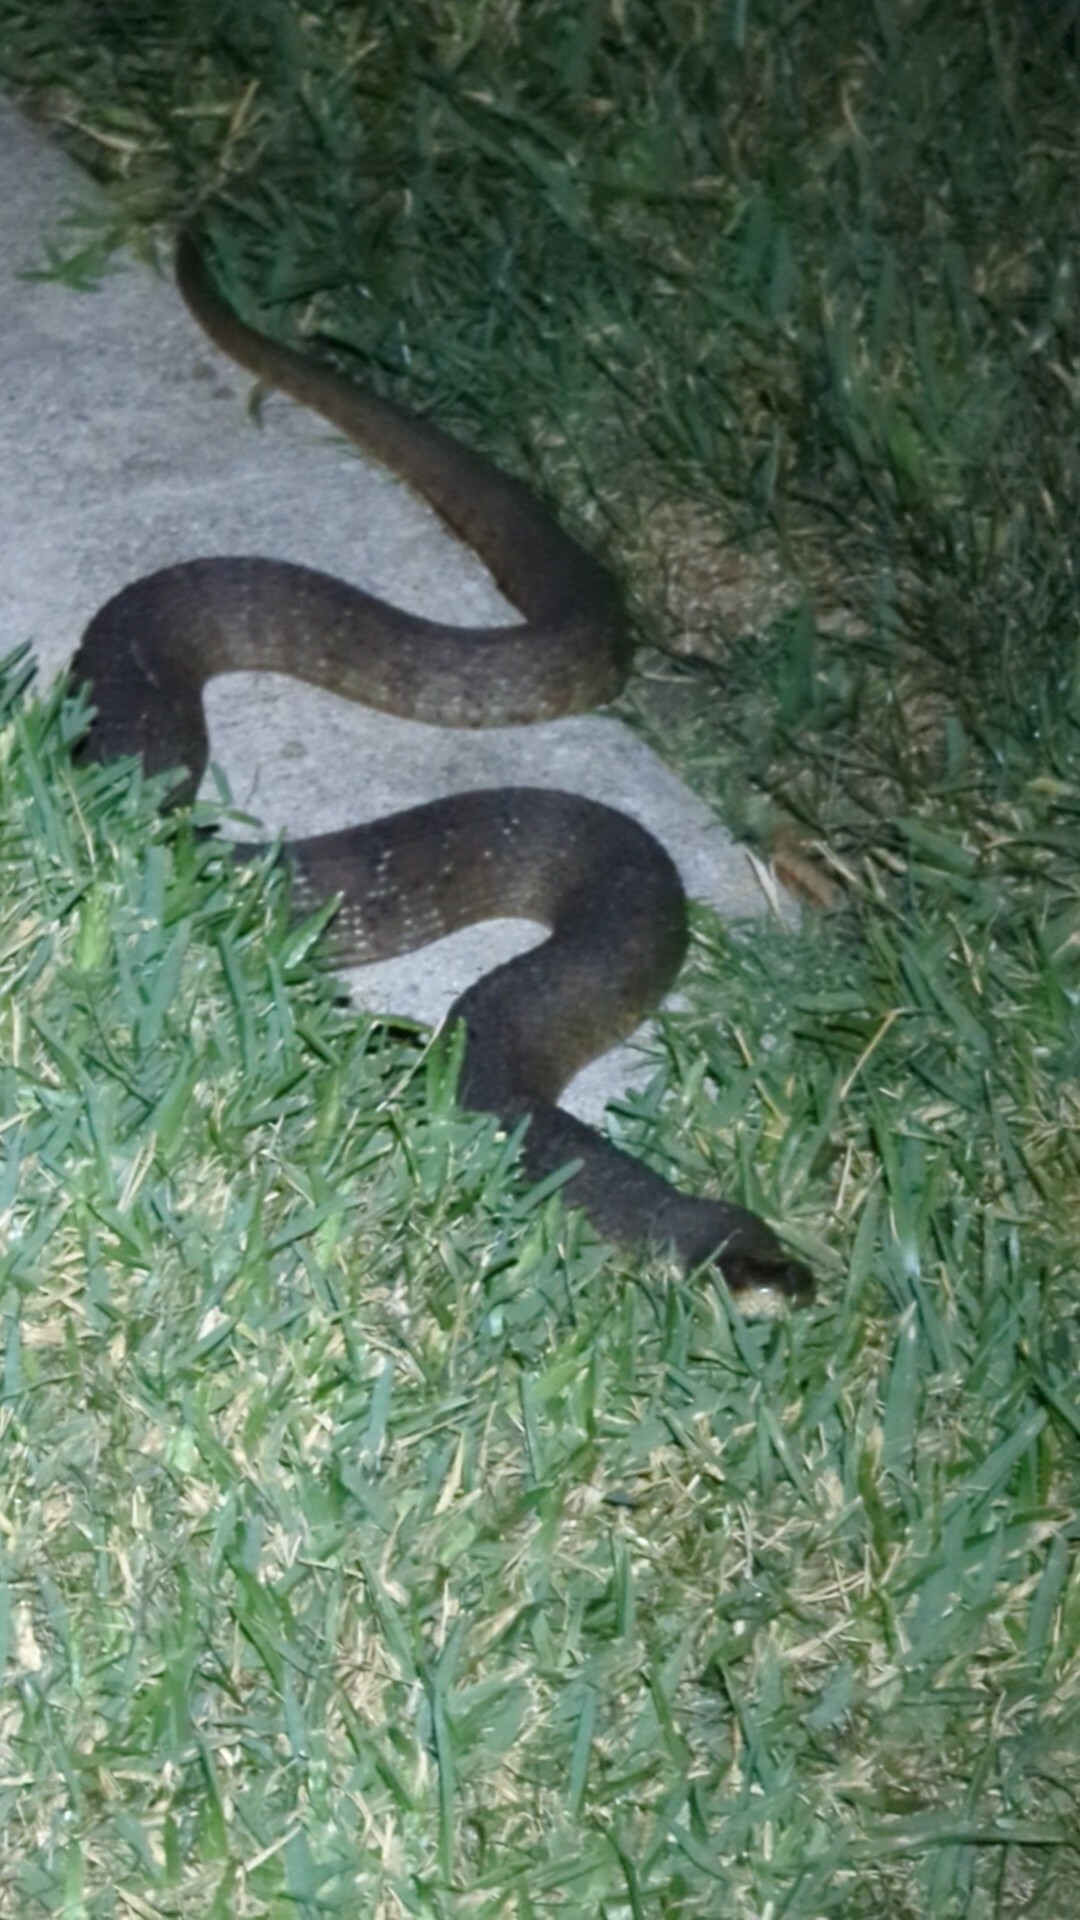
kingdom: Animalia
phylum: Chordata
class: Squamata
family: Colubridae
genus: Nerodia
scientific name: Nerodia erythrogaster
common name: Plainbelly water snake
